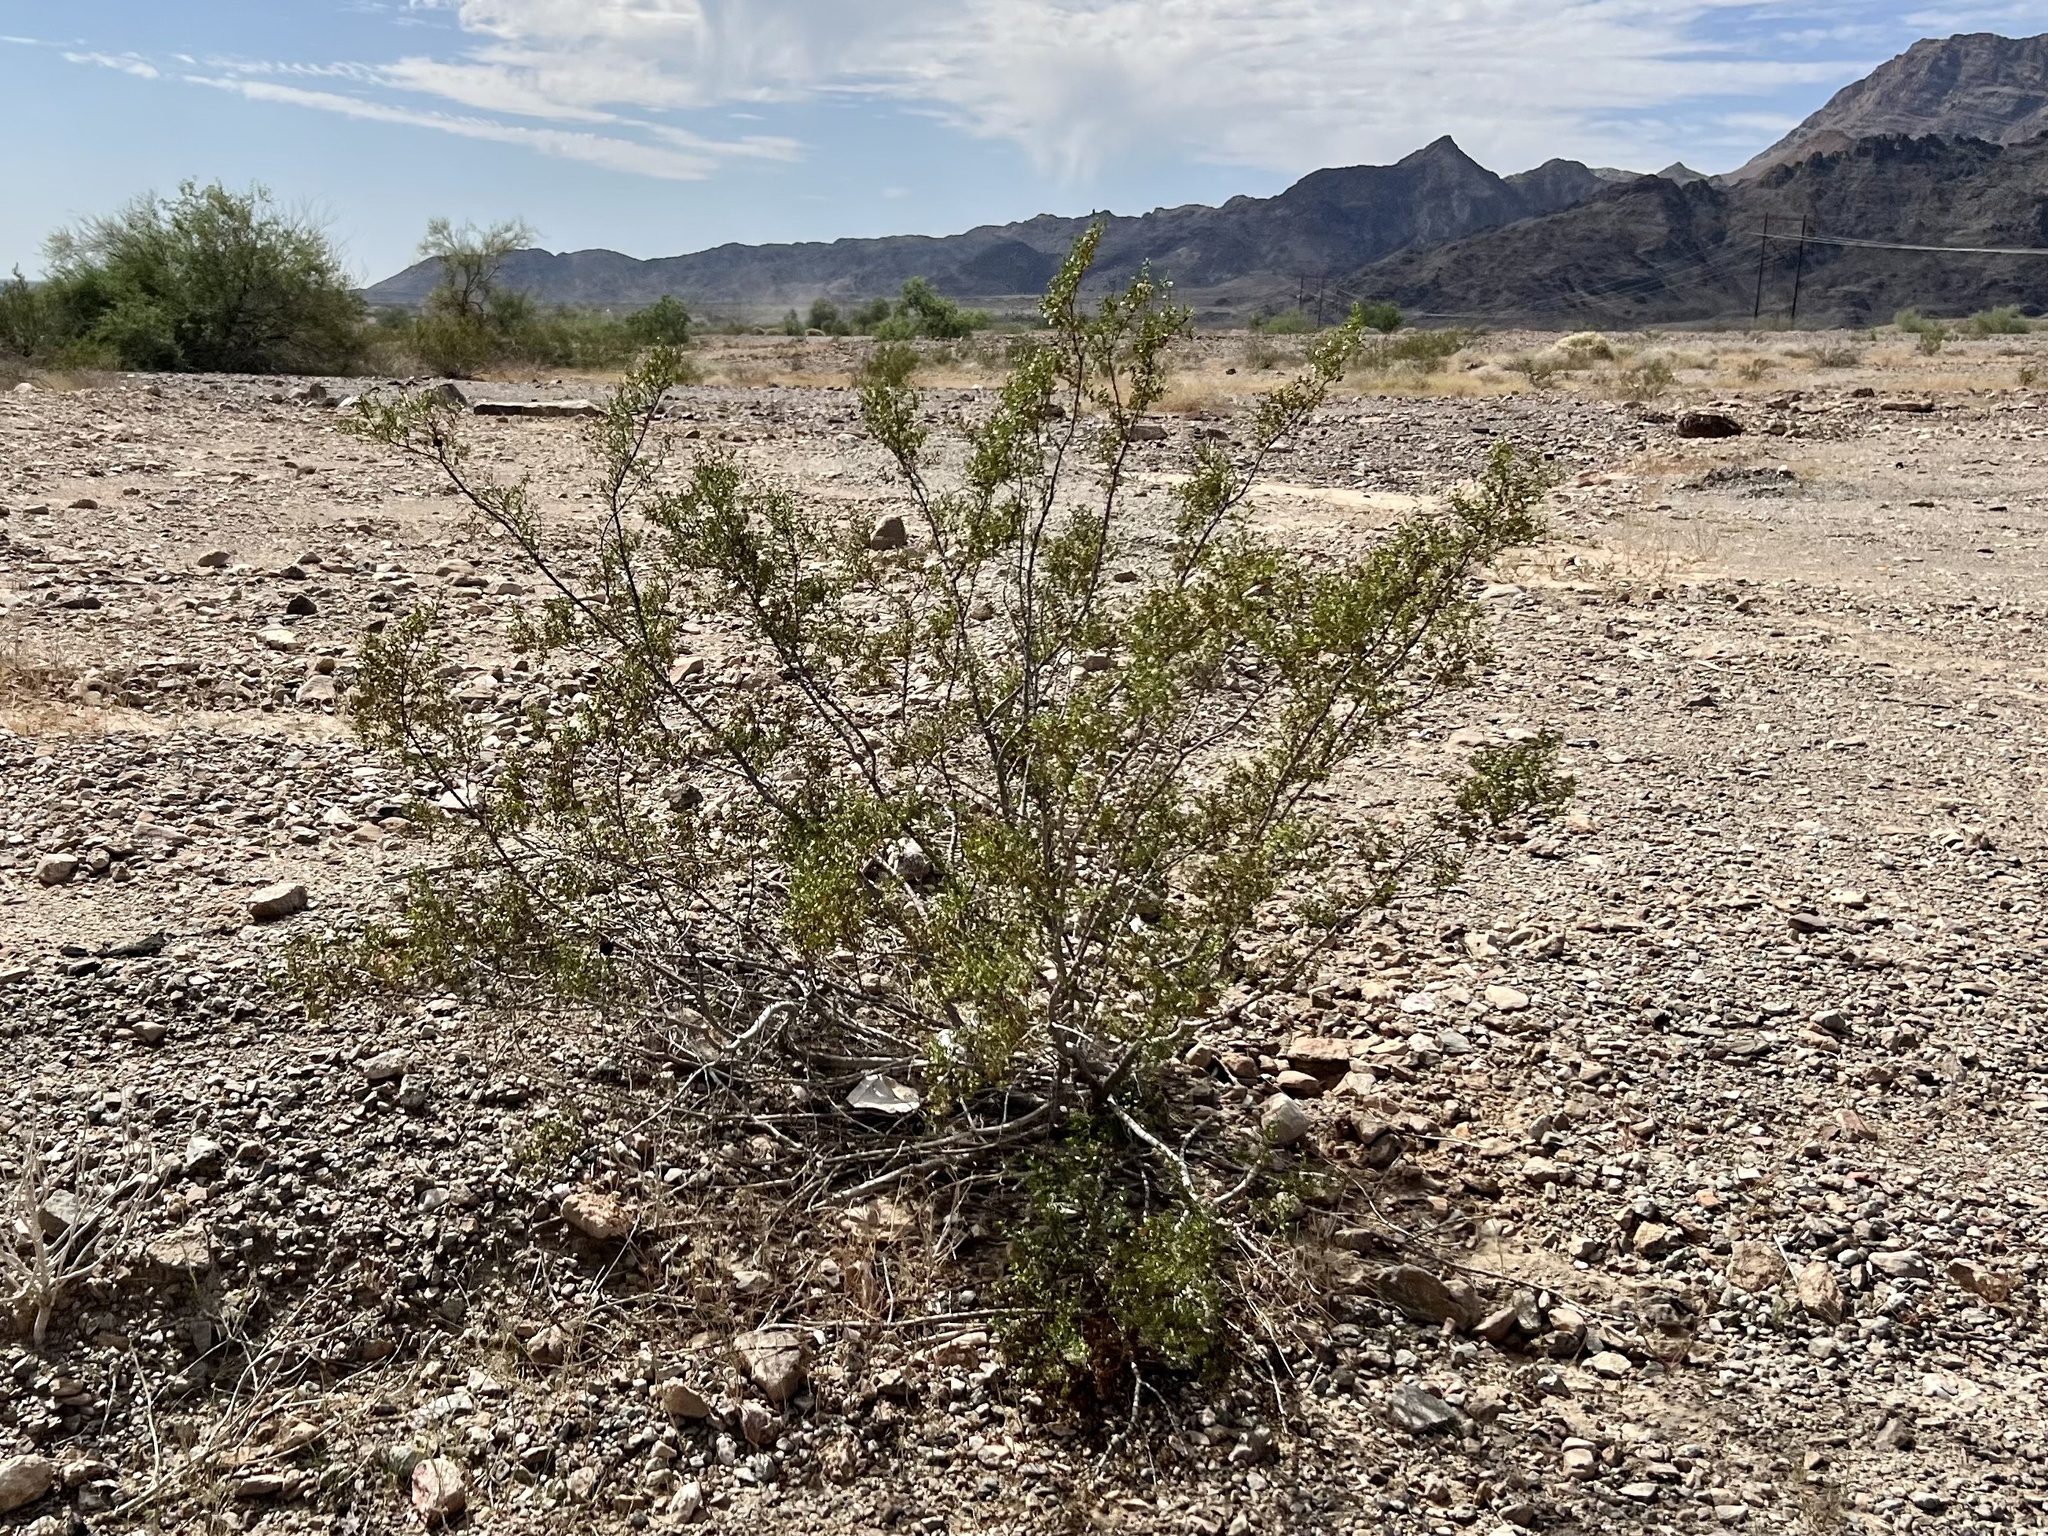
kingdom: Plantae
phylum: Tracheophyta
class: Magnoliopsida
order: Zygophyllales
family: Zygophyllaceae
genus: Larrea
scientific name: Larrea tridentata
